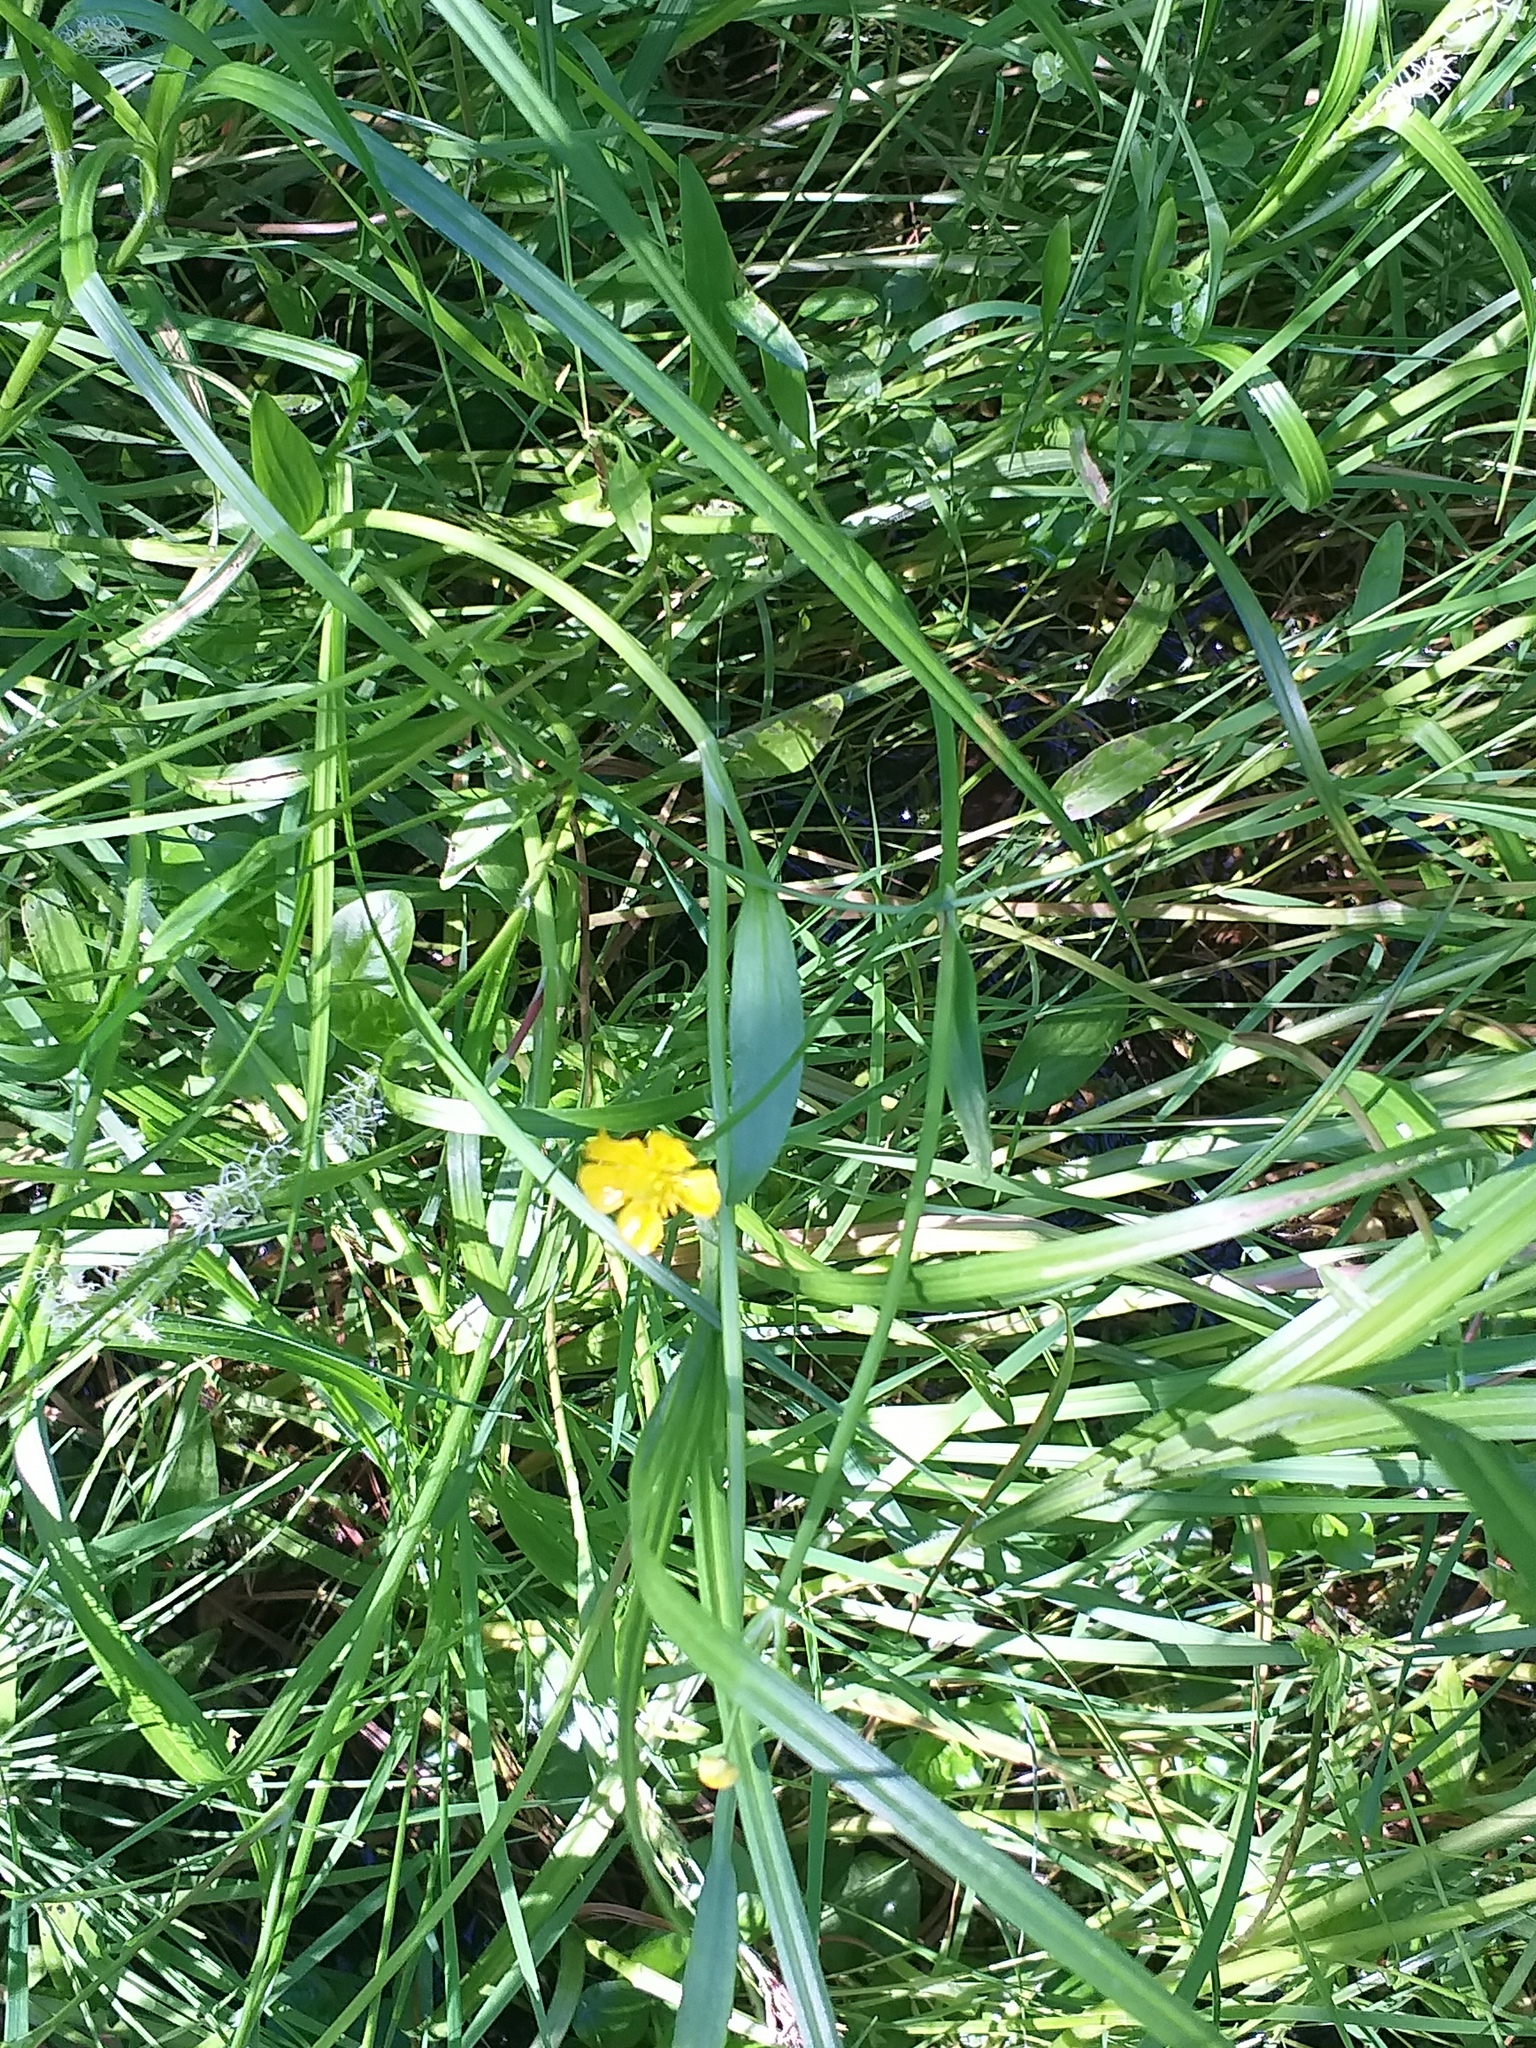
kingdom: Plantae
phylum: Tracheophyta
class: Magnoliopsida
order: Ranunculales
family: Ranunculaceae
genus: Ranunculus
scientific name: Ranunculus flammula
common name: Lesser spearwort
